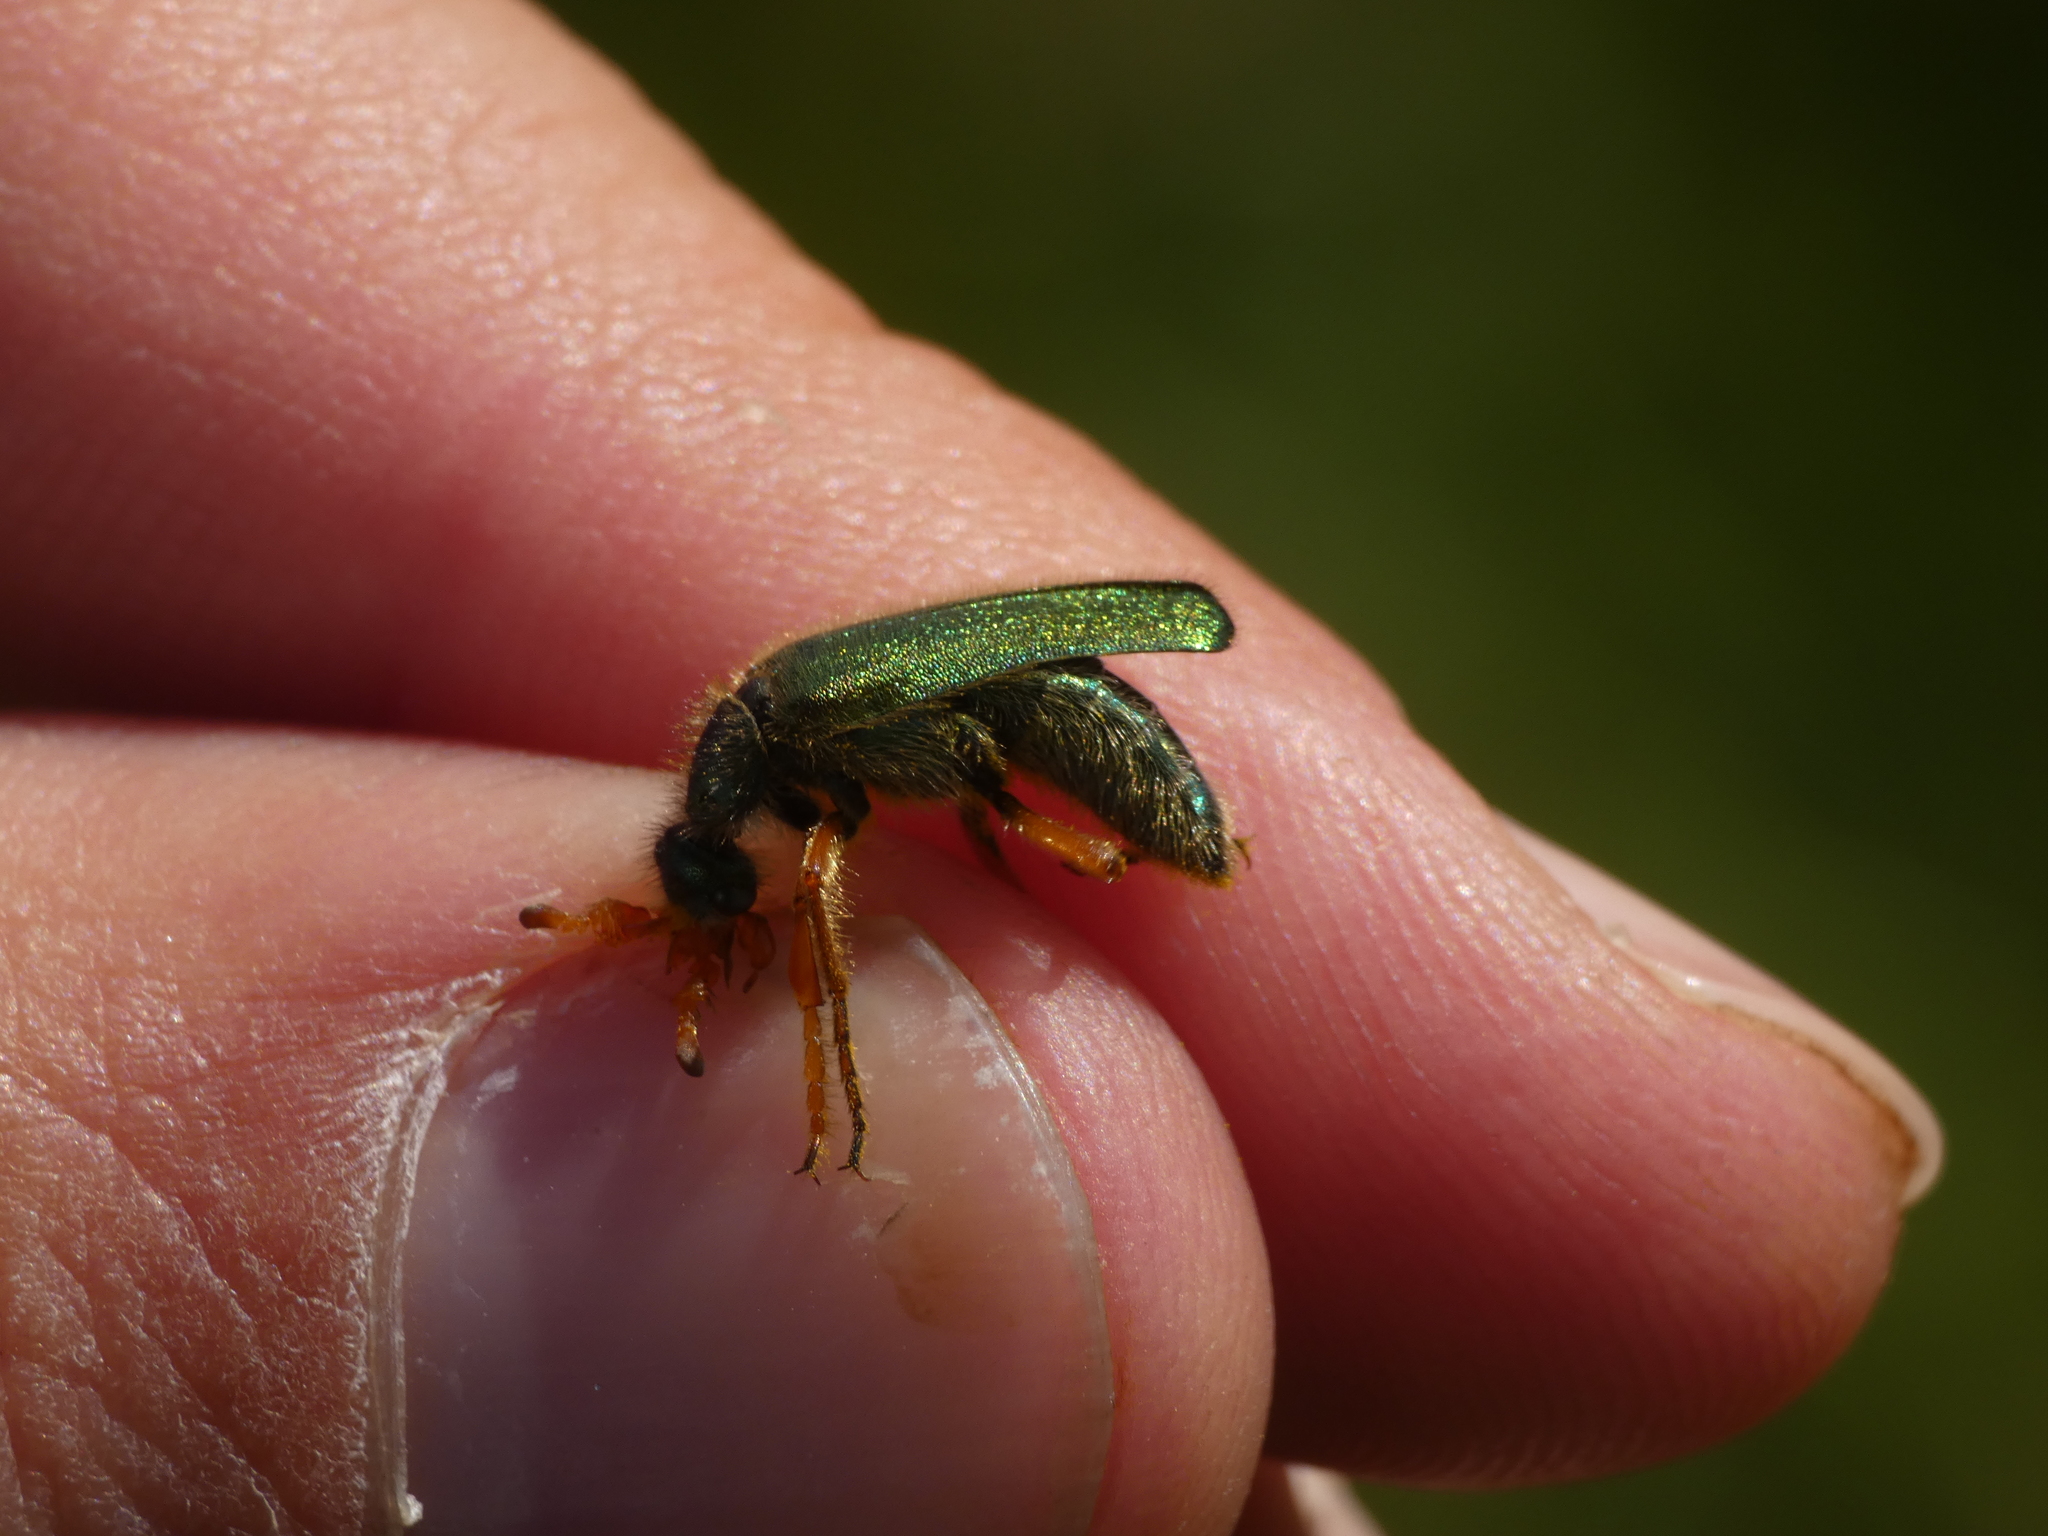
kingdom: Animalia
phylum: Arthropoda
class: Insecta
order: Coleoptera
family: Meloidae
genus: Cerocoma
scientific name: Cerocoma schaefferi
